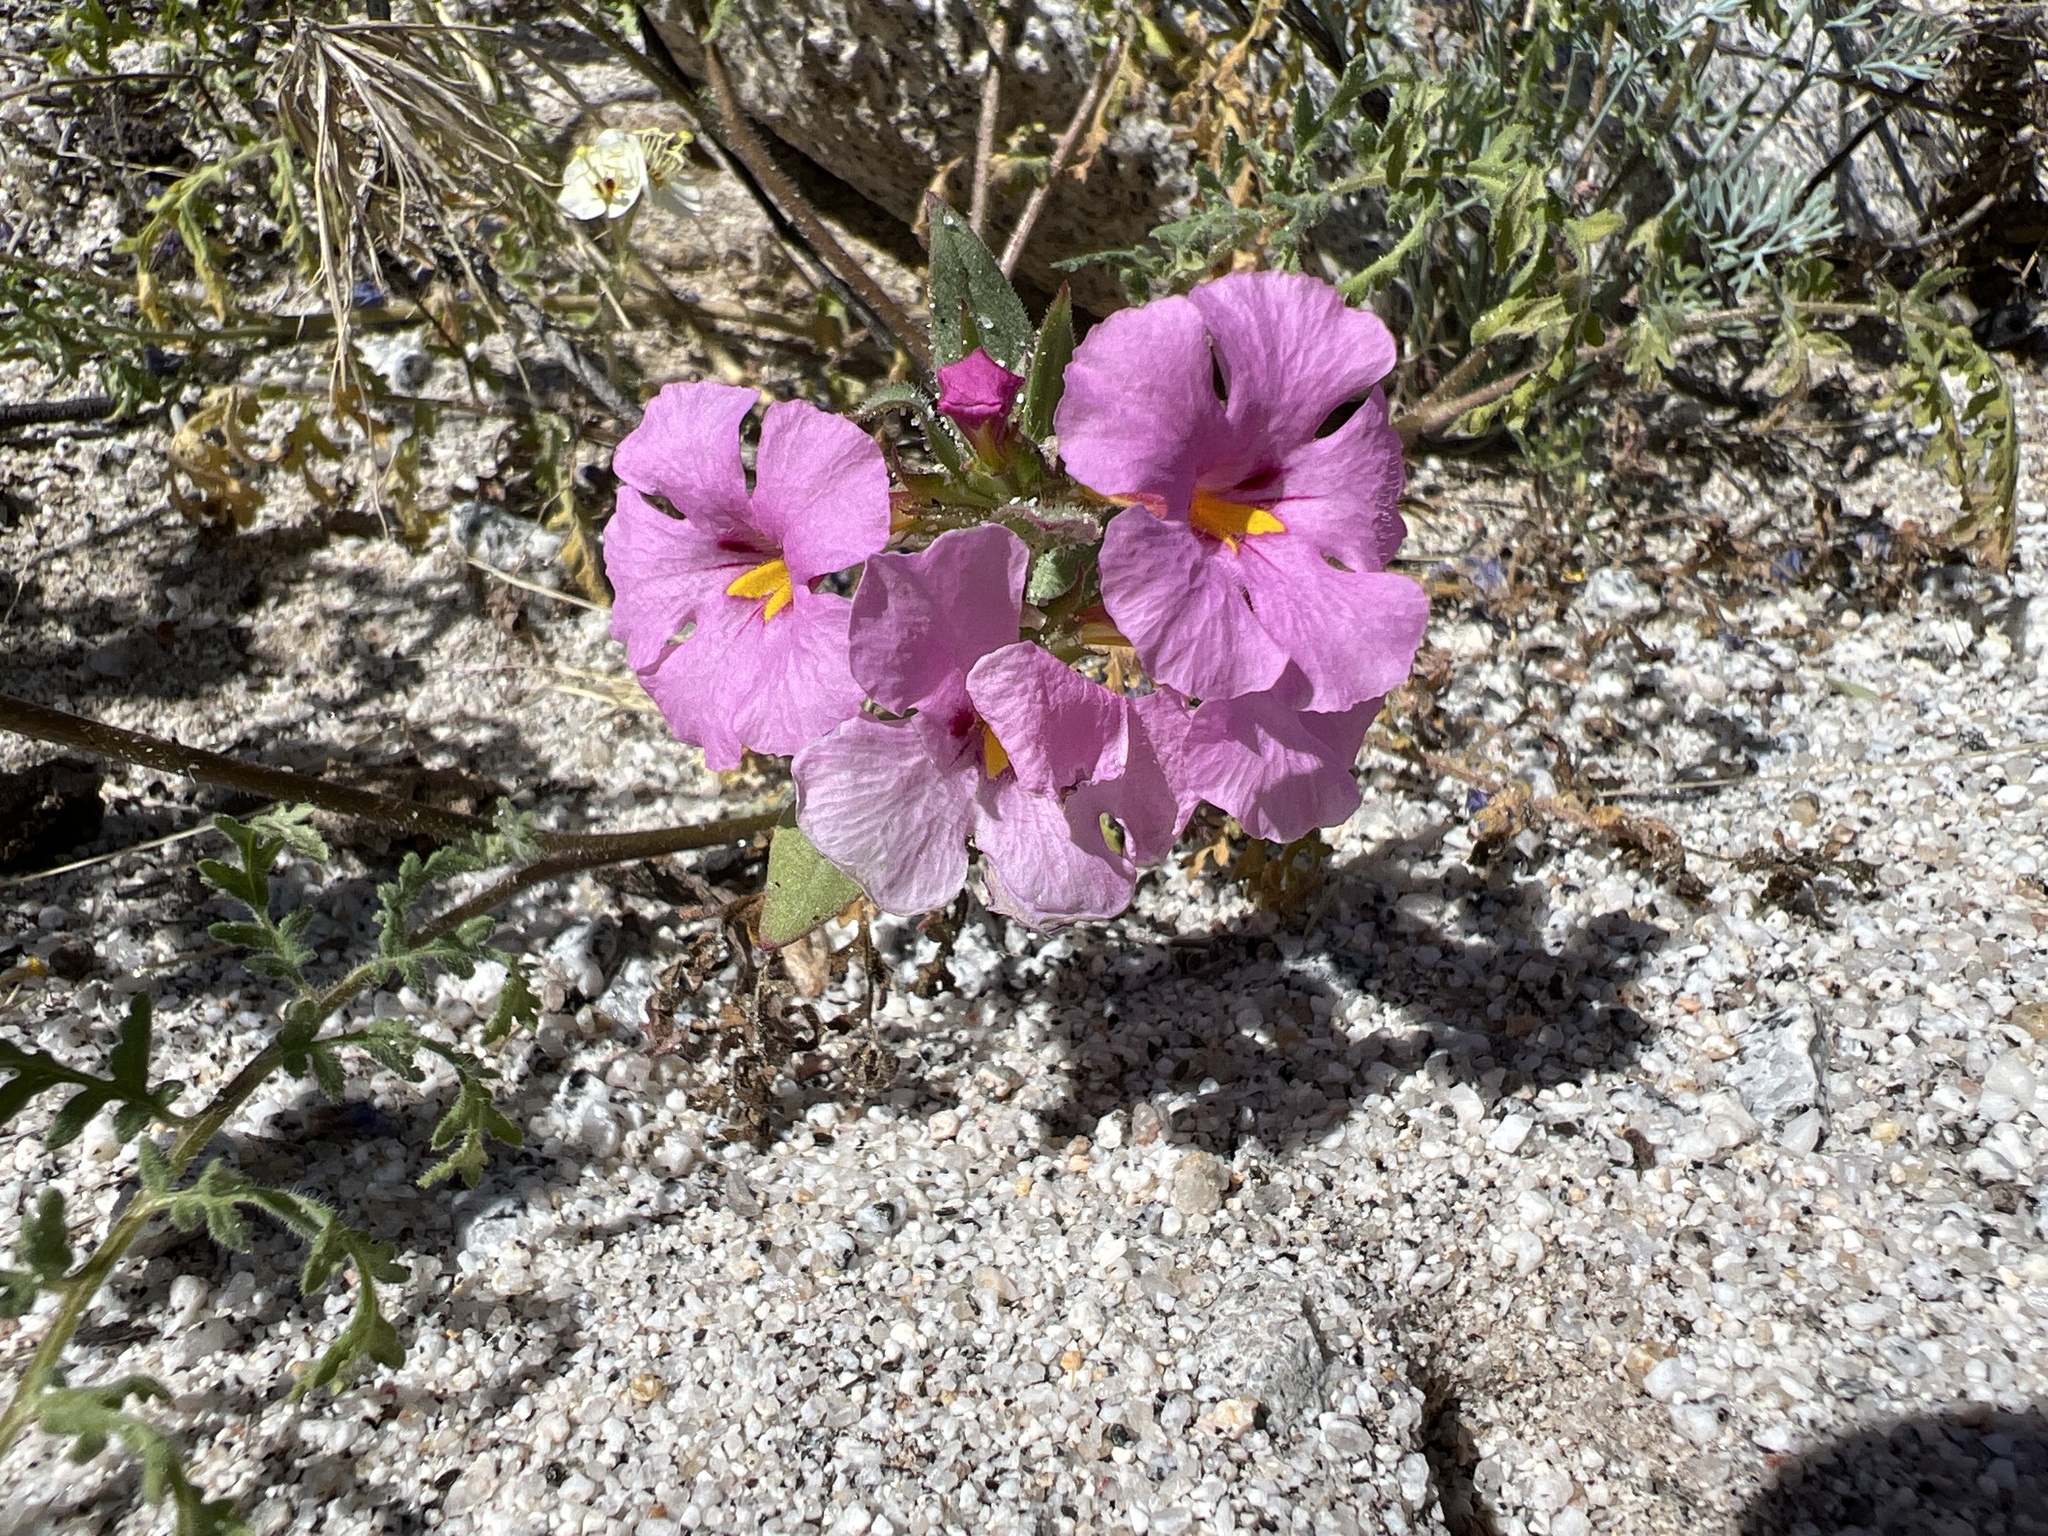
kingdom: Plantae
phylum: Tracheophyta
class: Magnoliopsida
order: Lamiales
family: Phrymaceae
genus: Diplacus
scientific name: Diplacus bigelovii
